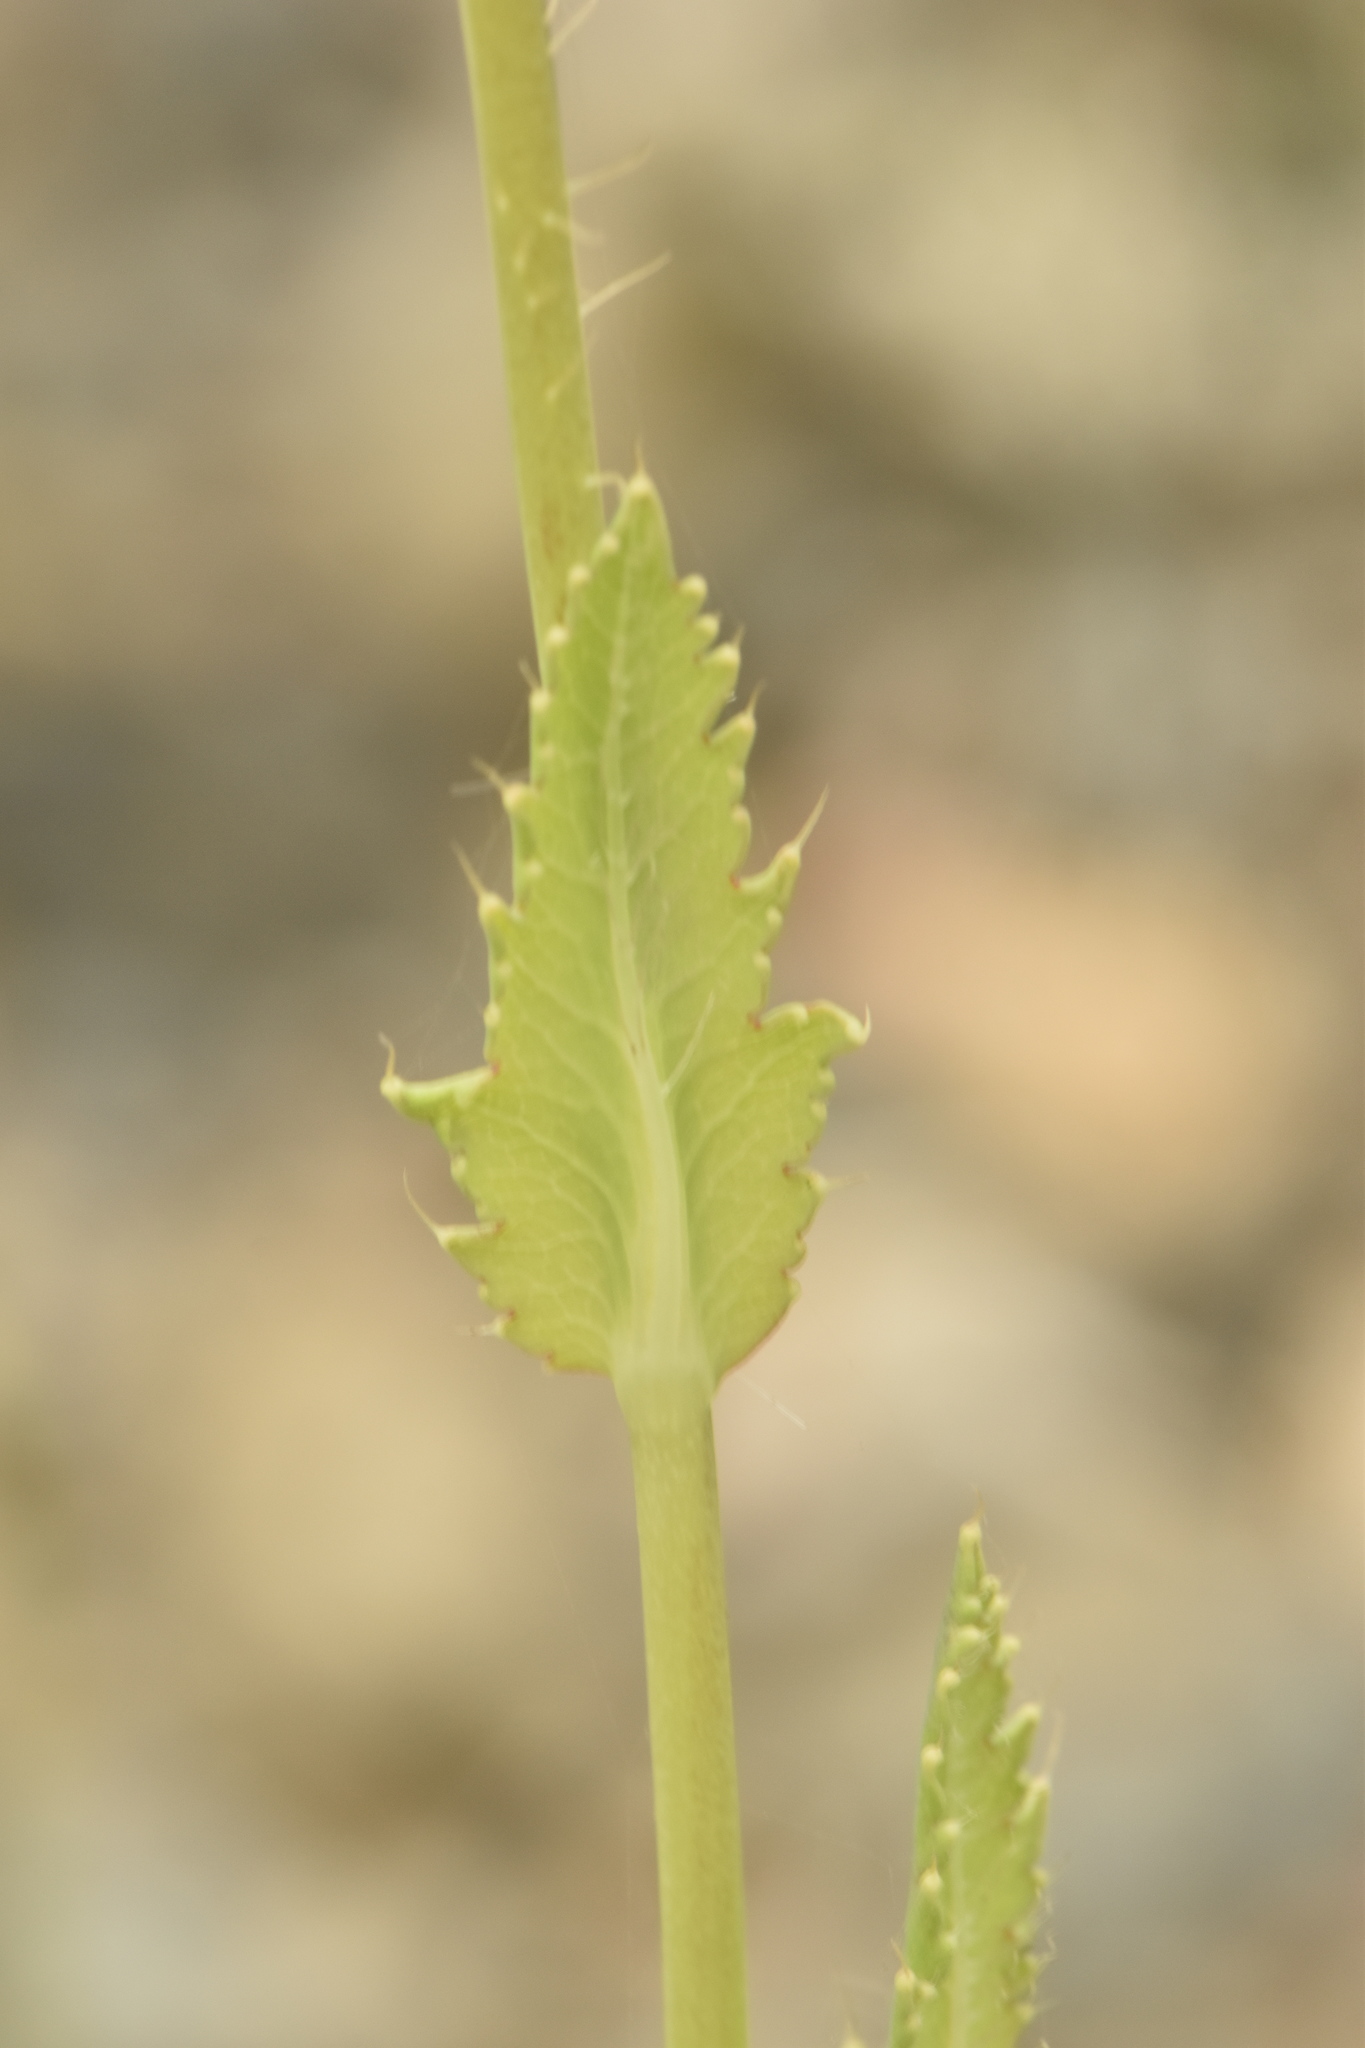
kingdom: Plantae
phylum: Tracheophyta
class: Magnoliopsida
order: Ranunculales
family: Papaveraceae
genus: Papaver
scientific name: Papaver setigerum
